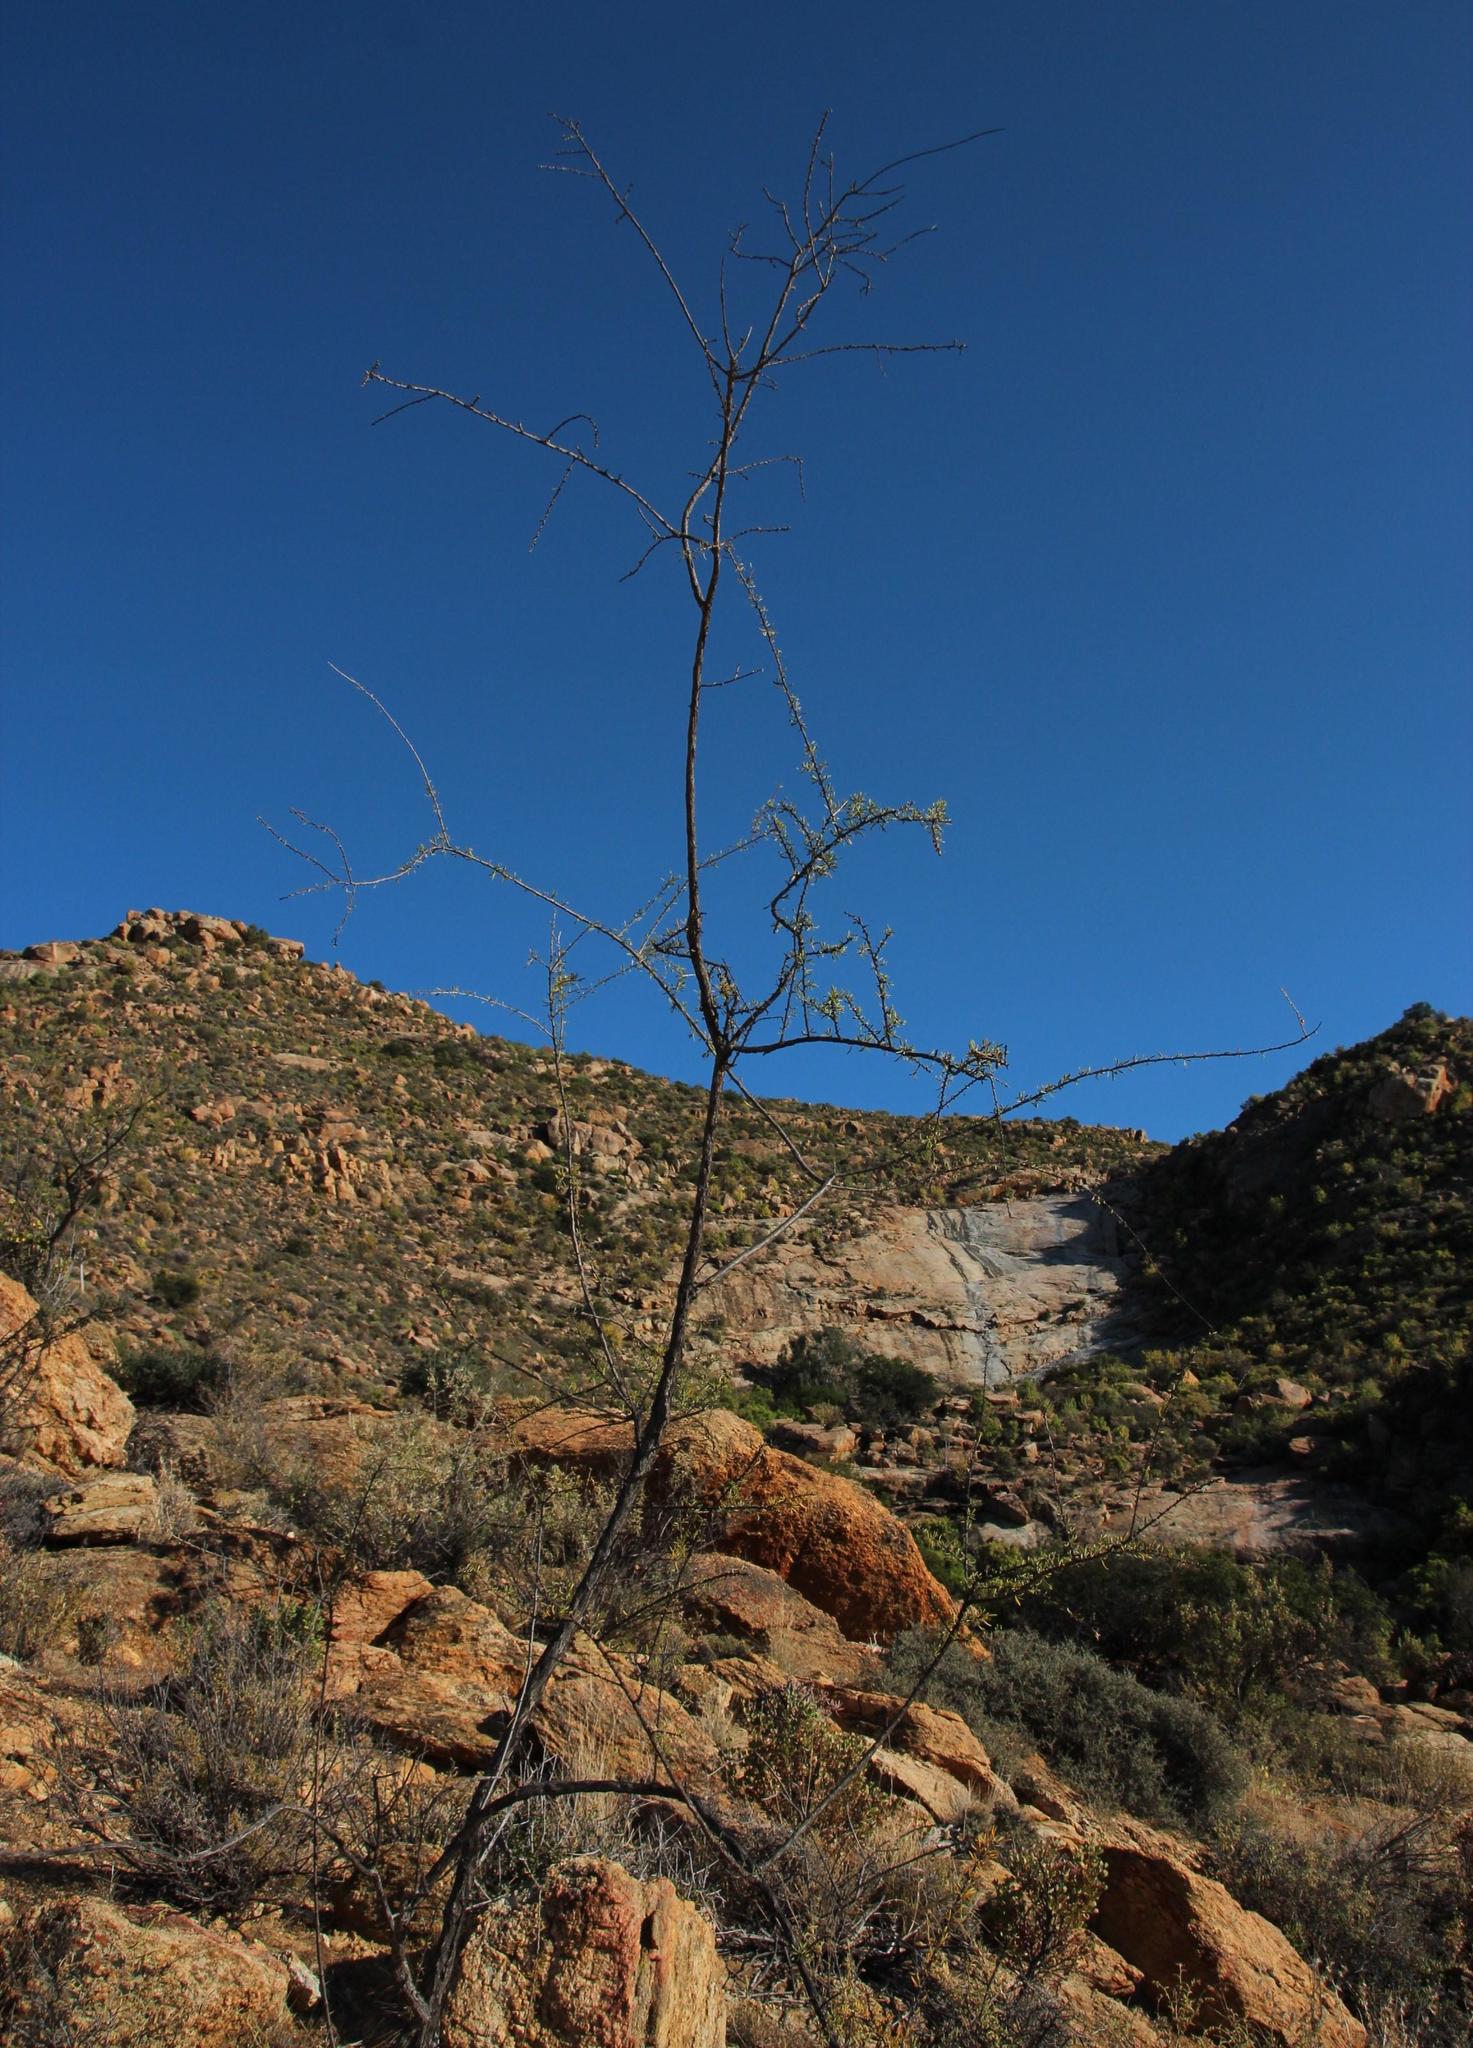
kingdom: Plantae
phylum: Tracheophyta
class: Magnoliopsida
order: Solanales
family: Solanaceae
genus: Lycium
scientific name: Lycium bosciifolium
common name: Limpopo honey-thorn
